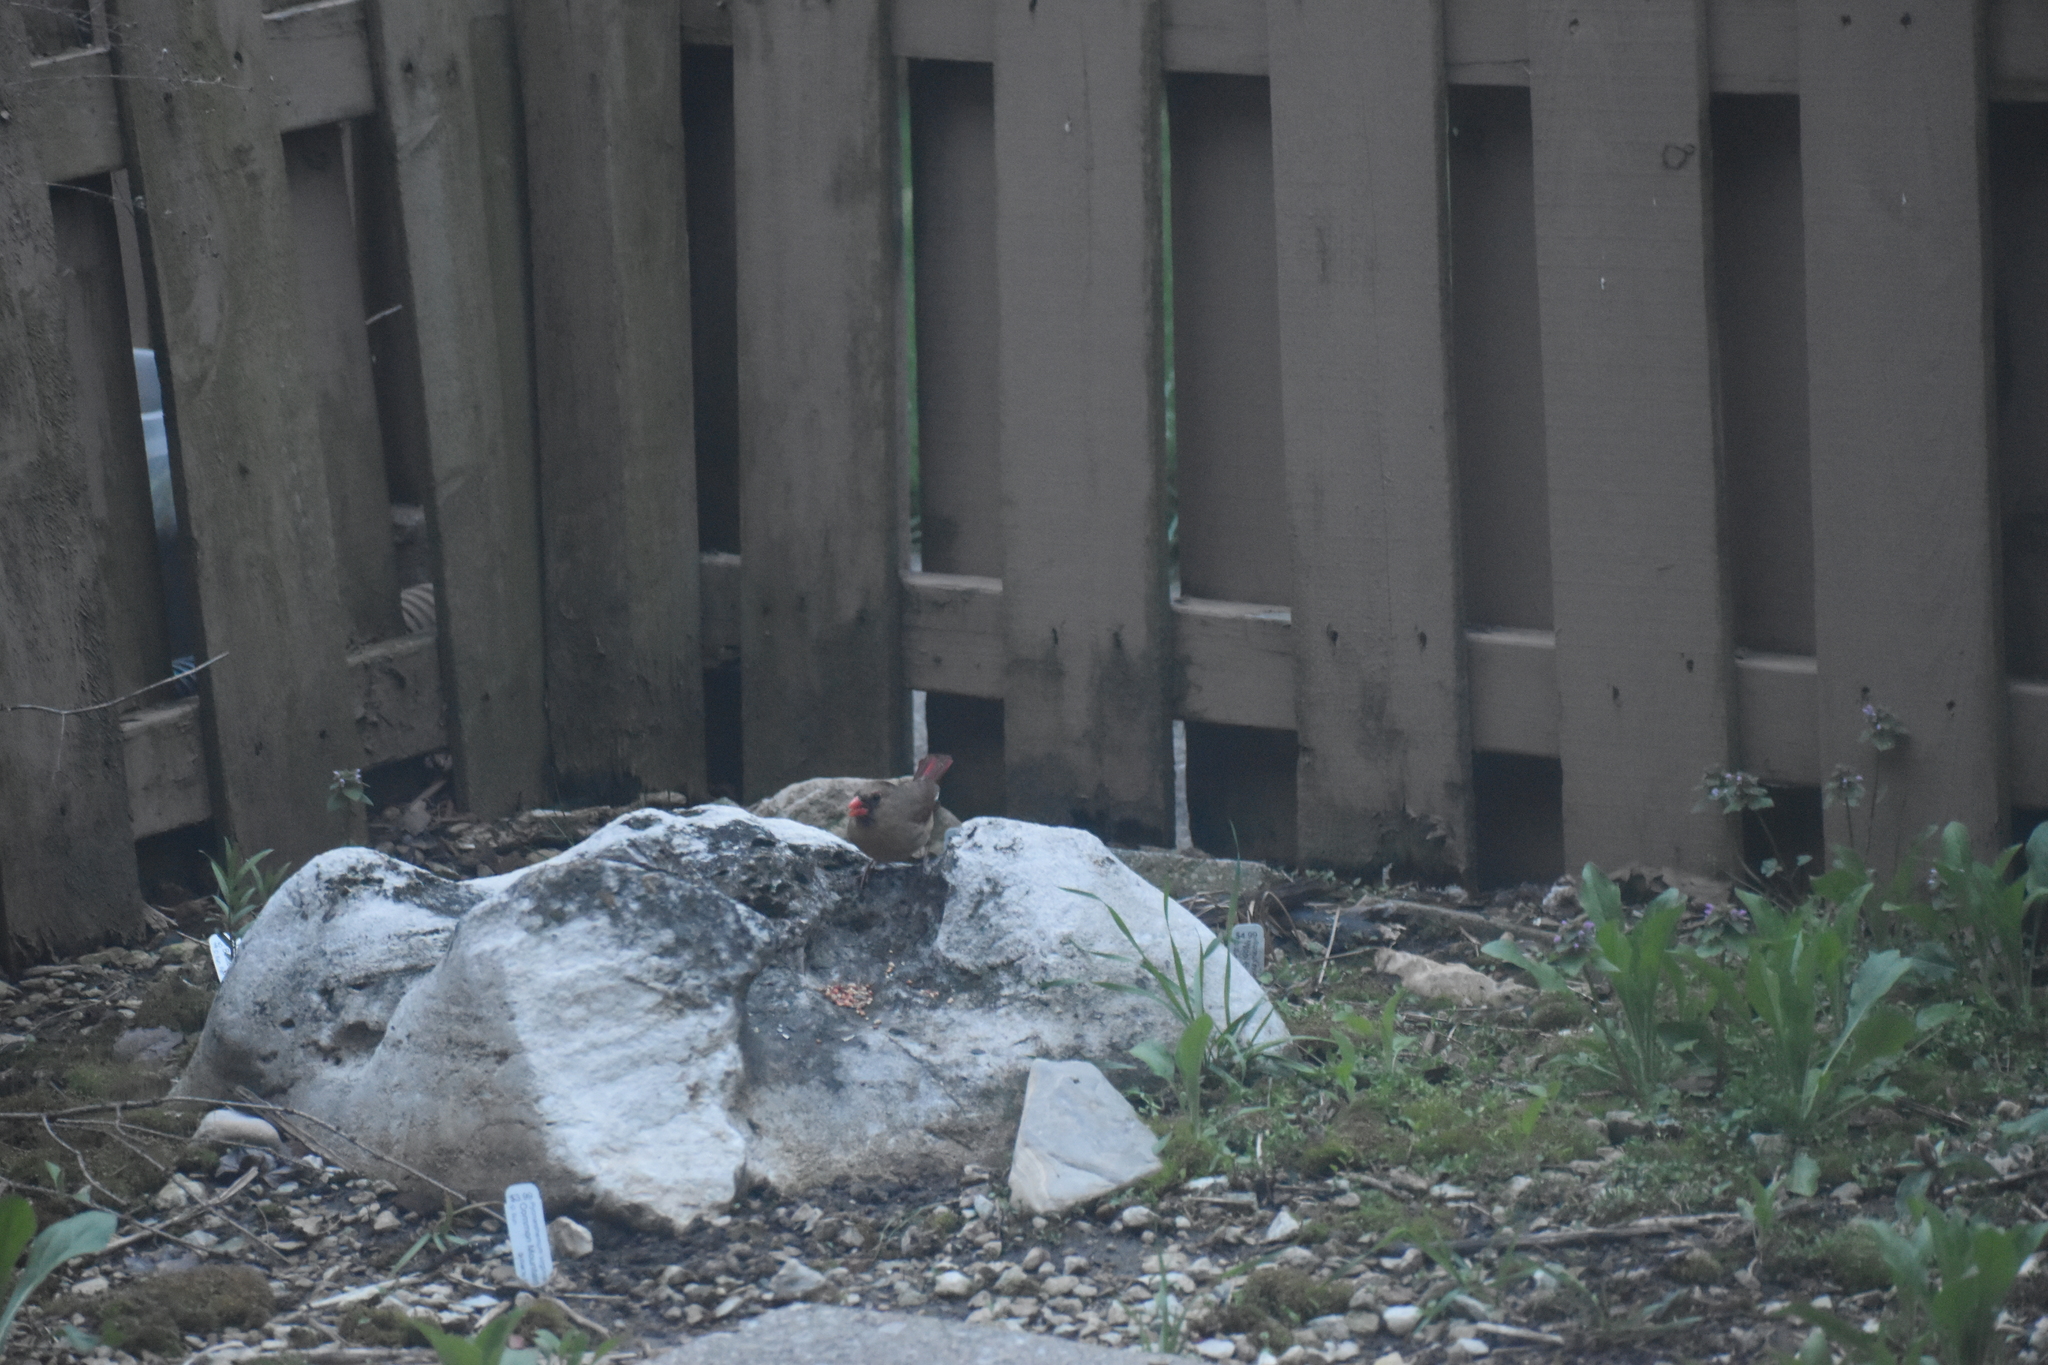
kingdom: Animalia
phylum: Chordata
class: Aves
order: Passeriformes
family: Cardinalidae
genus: Cardinalis
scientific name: Cardinalis cardinalis
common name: Northern cardinal
